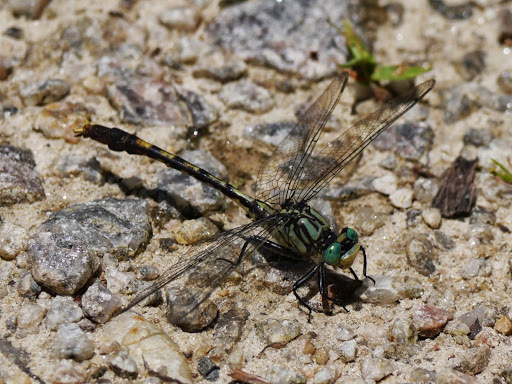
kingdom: Animalia
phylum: Arthropoda
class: Insecta
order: Odonata
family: Gomphidae
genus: Arigomphus
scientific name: Arigomphus villosipes
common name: Unicorn clubtail
